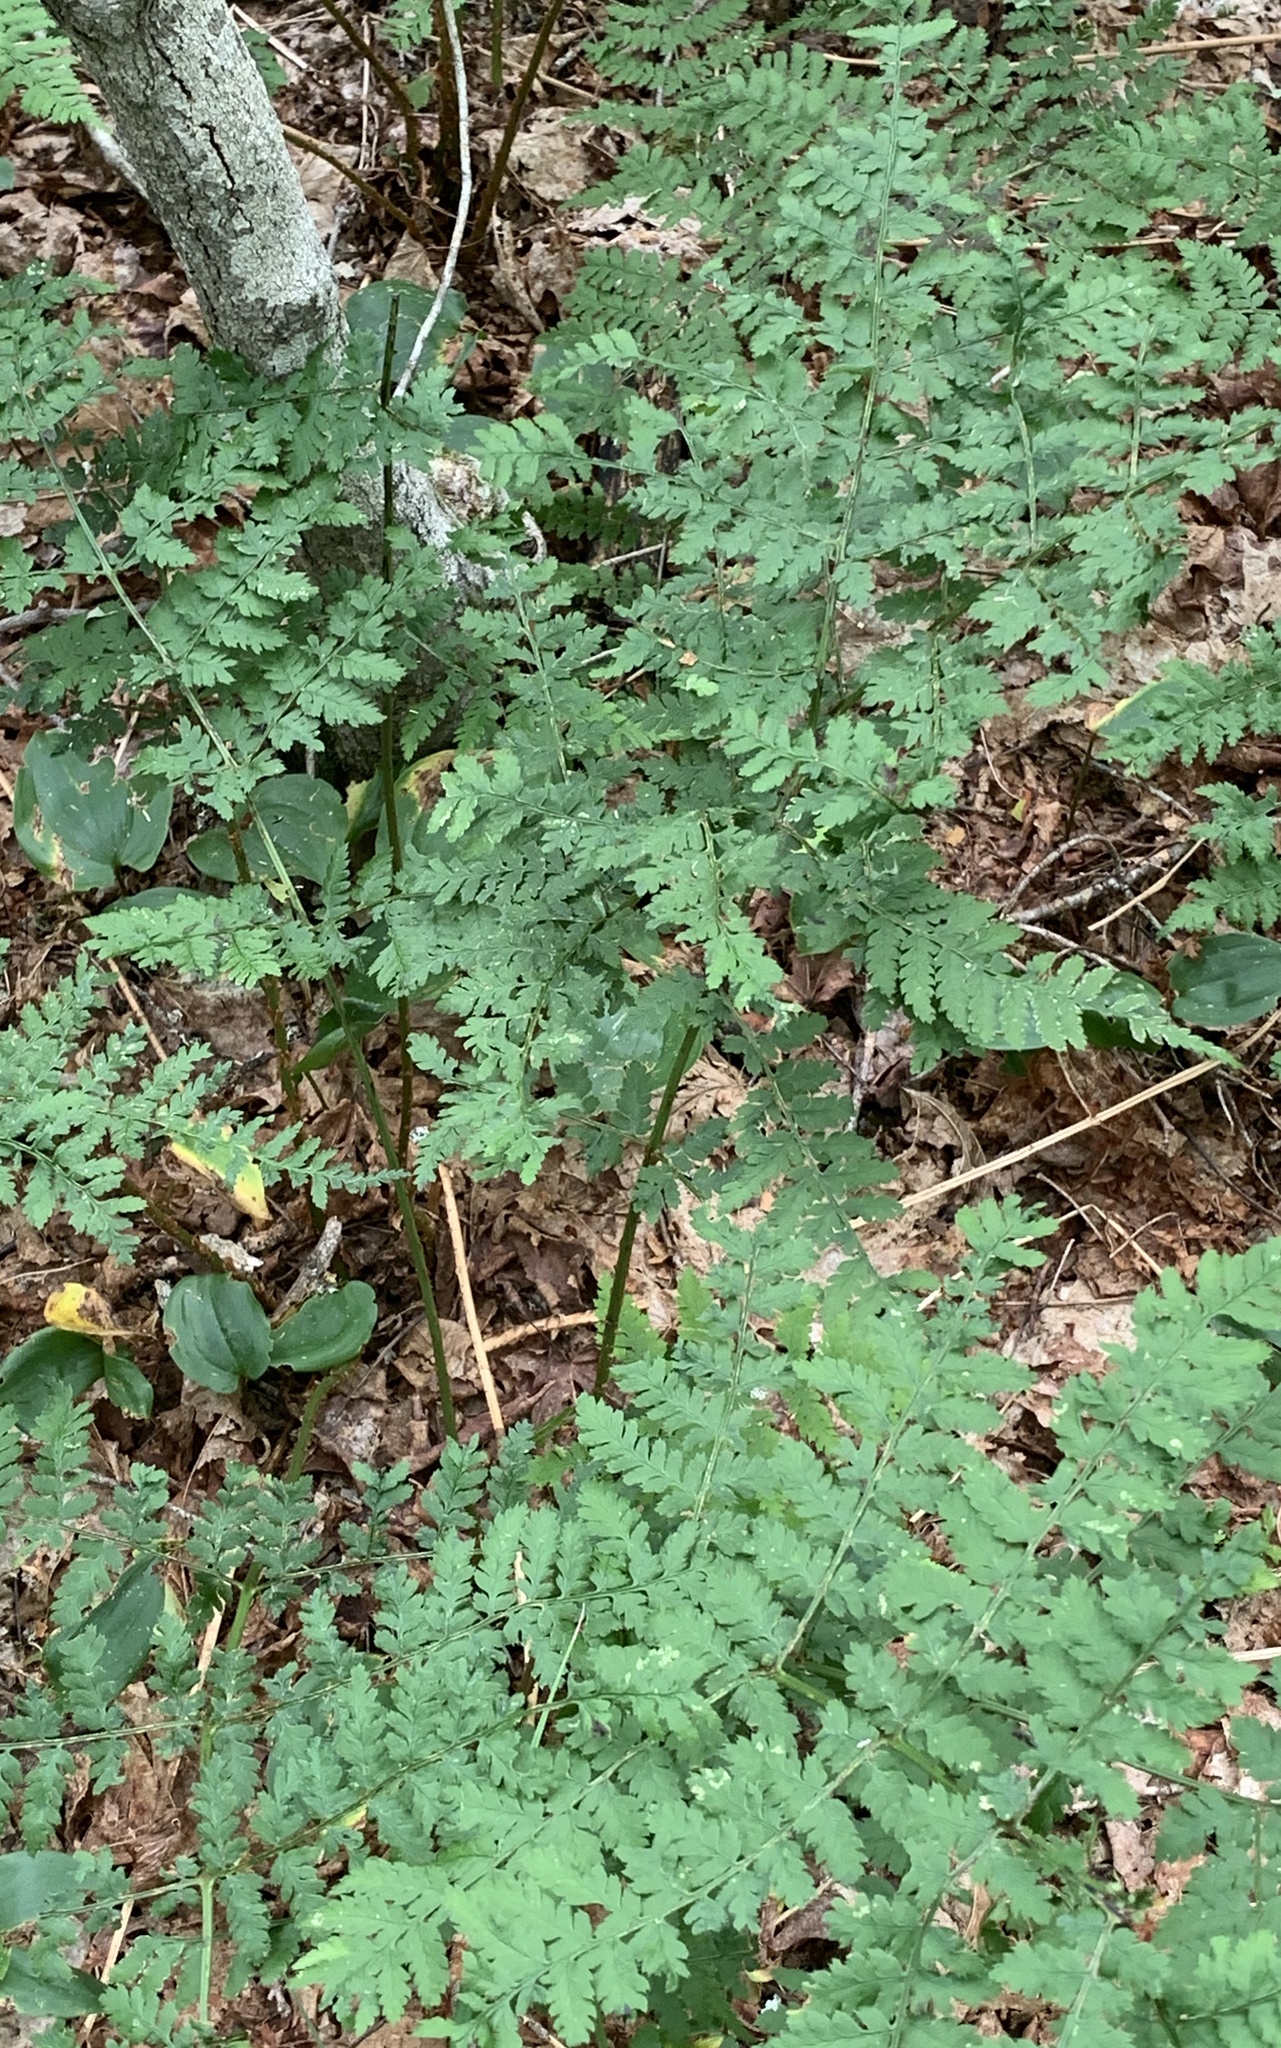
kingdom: Plantae
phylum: Tracheophyta
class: Polypodiopsida
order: Polypodiales
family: Dryopteridaceae
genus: Dryopteris
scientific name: Dryopteris intermedia
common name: Evergreen wood fern
